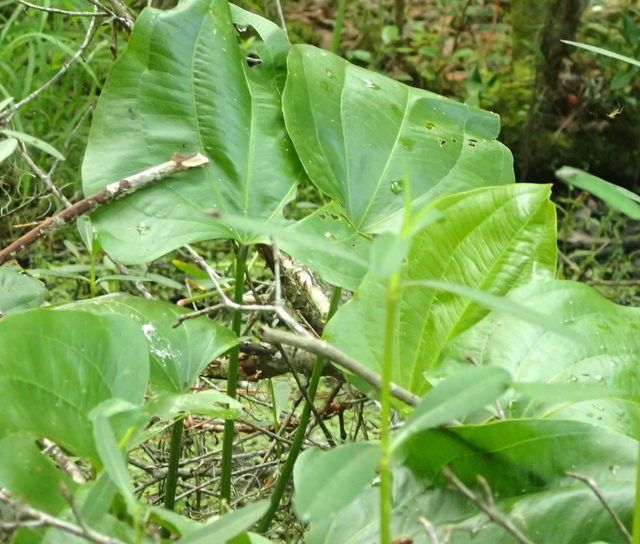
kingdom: Plantae
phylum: Tracheophyta
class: Liliopsida
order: Alismatales
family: Alismataceae
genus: Aquarius
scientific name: Aquarius cordifolius
